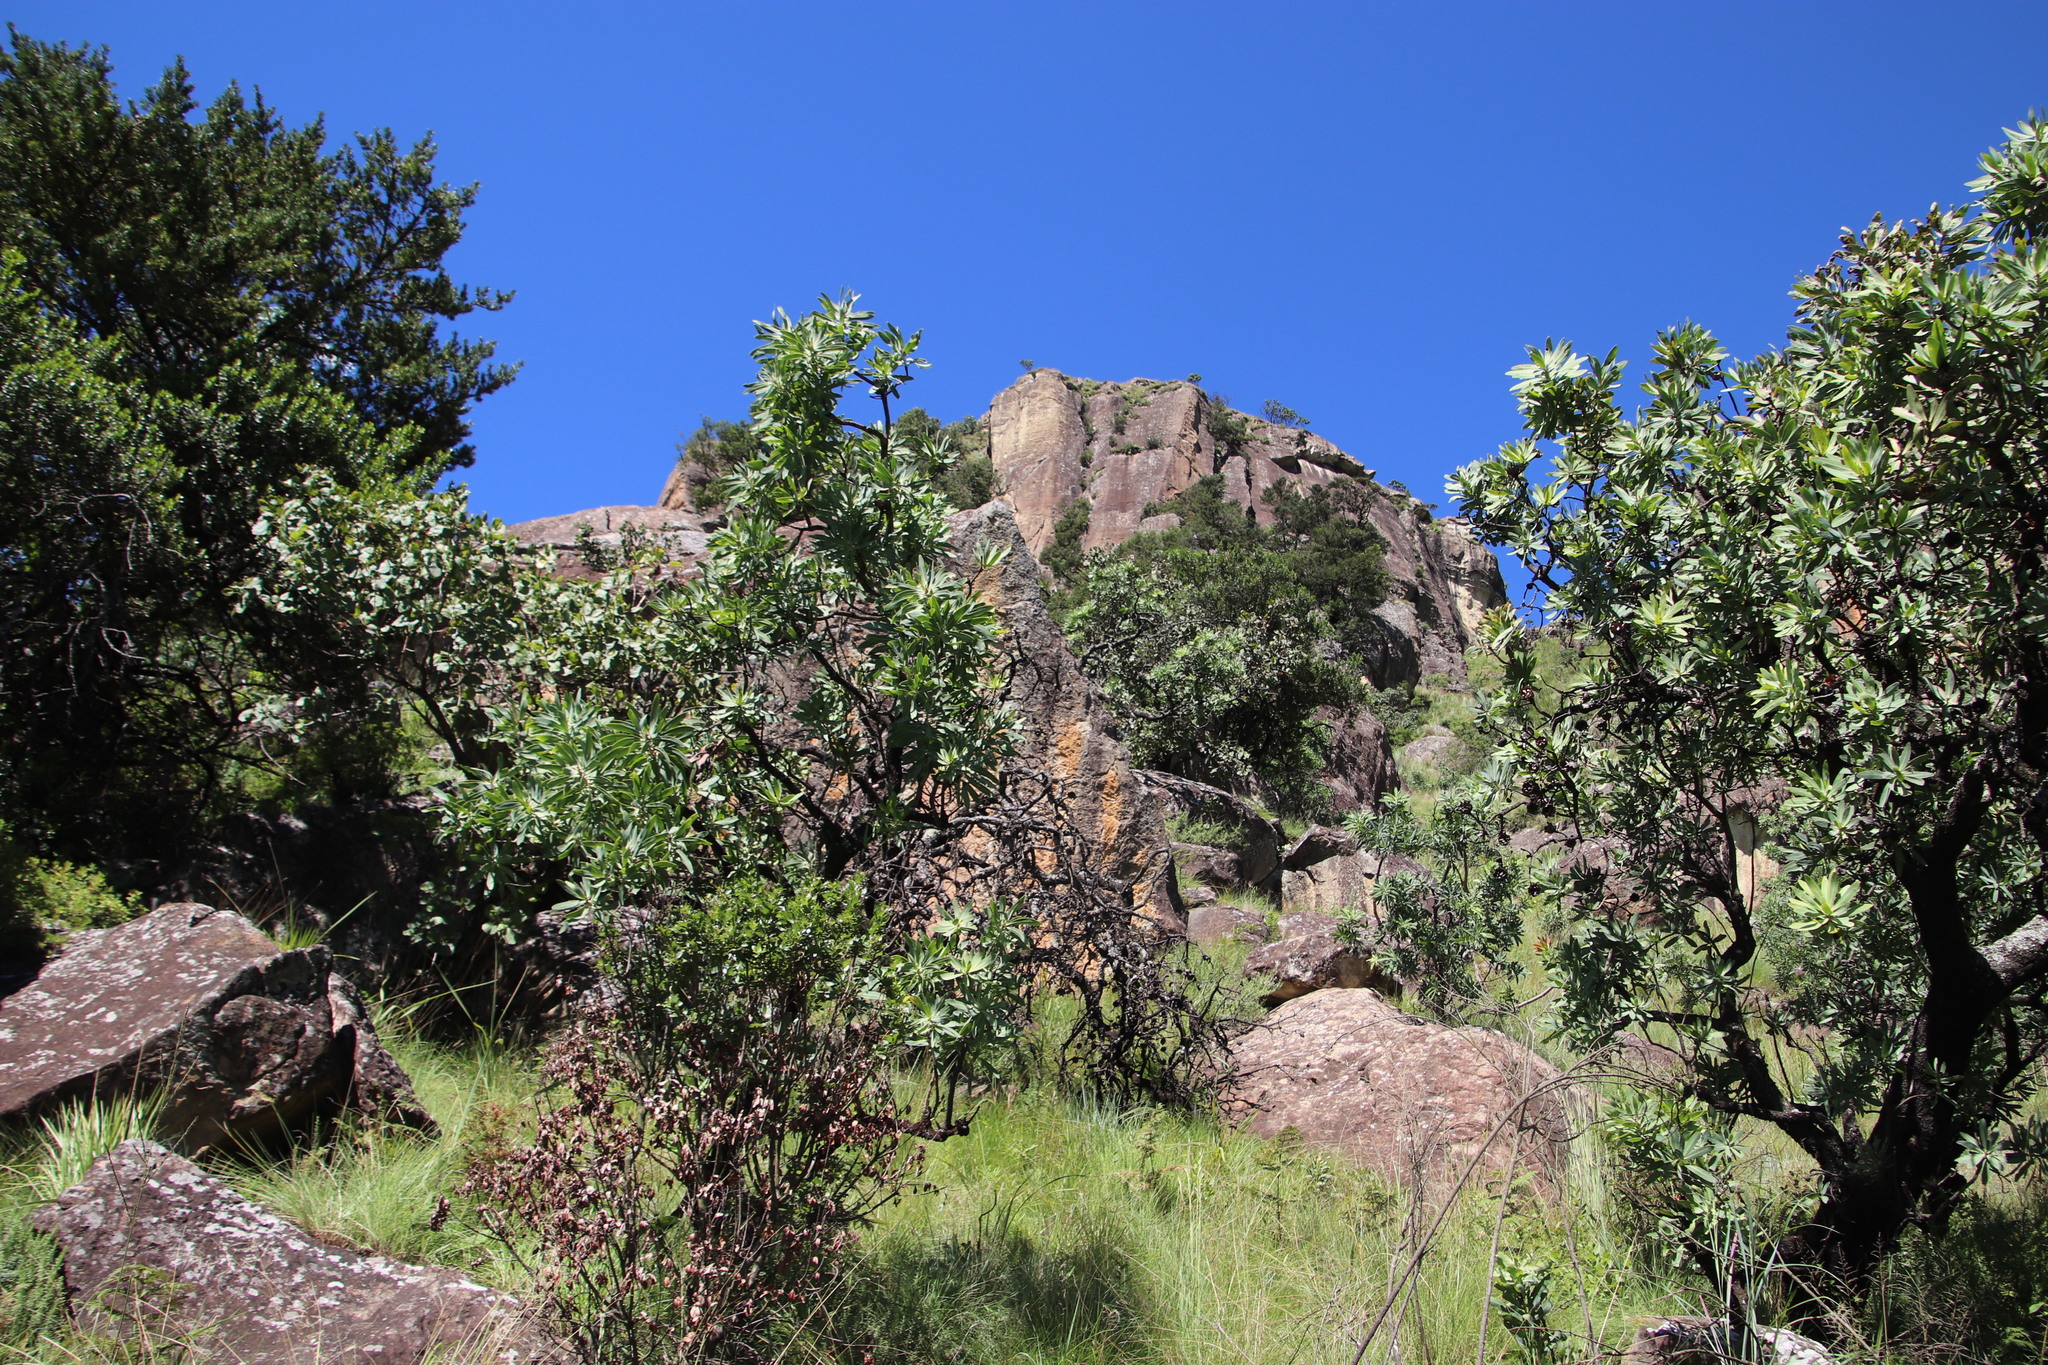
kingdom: Plantae
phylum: Tracheophyta
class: Magnoliopsida
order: Proteales
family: Proteaceae
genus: Protea
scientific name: Protea caffra
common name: Common sugarbush
